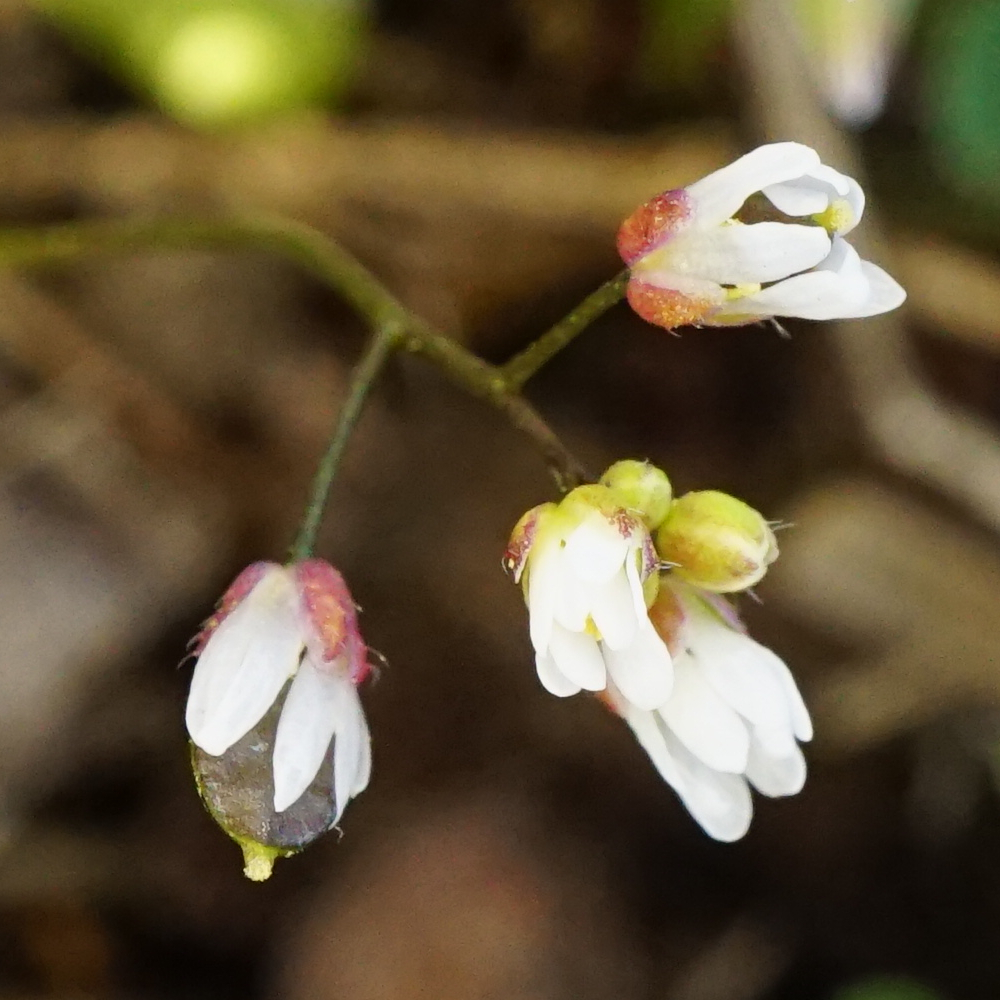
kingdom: Plantae
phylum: Tracheophyta
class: Magnoliopsida
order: Brassicales
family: Brassicaceae
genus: Draba
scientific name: Draba verna
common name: Spring draba
